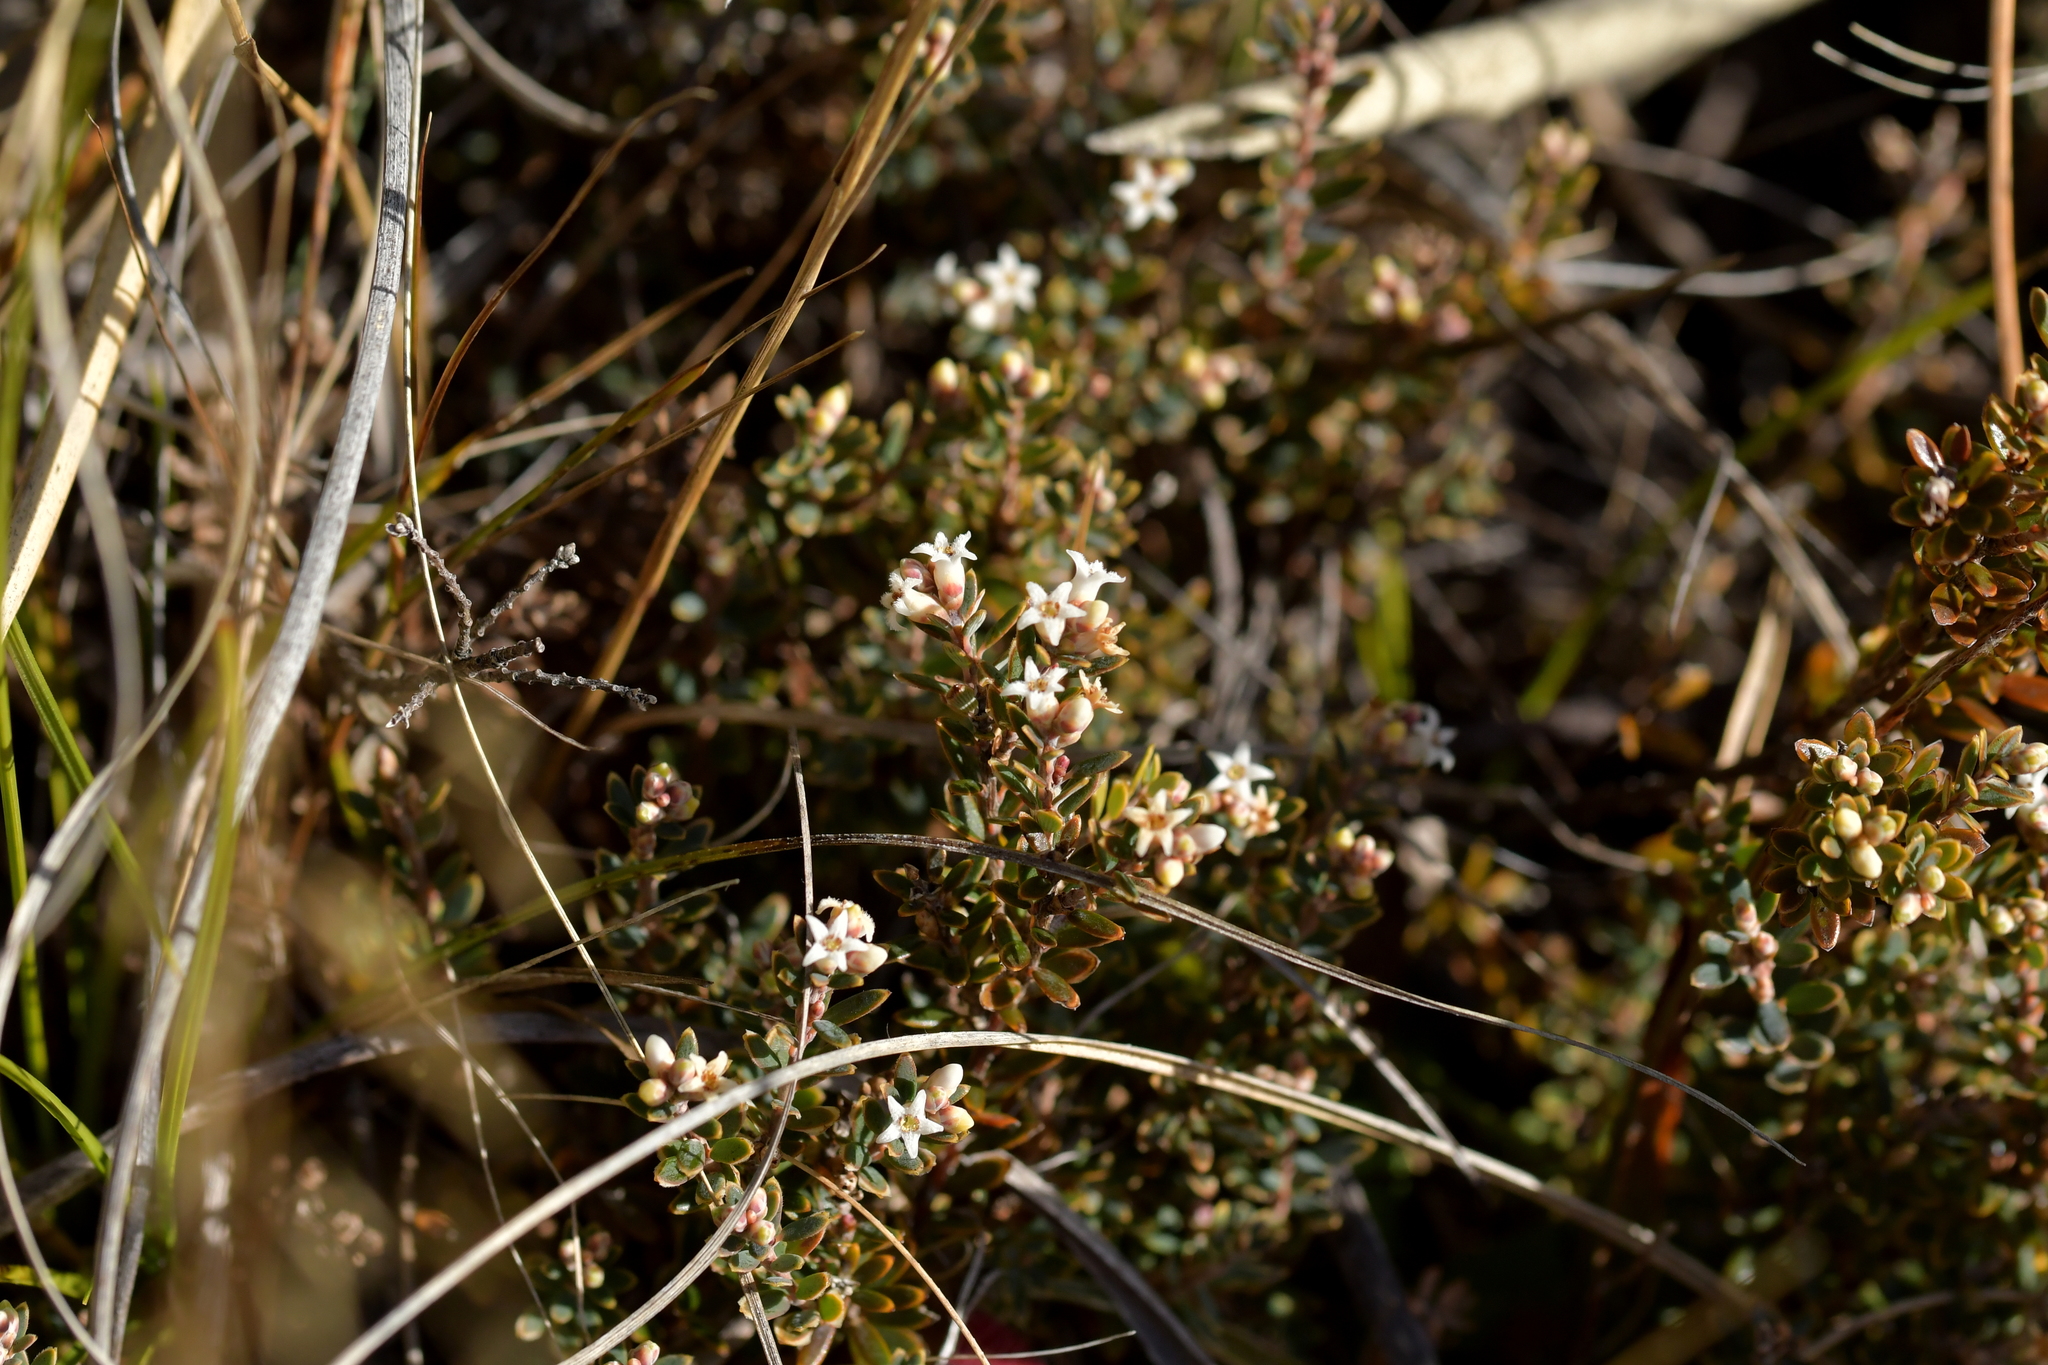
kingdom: Plantae
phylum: Tracheophyta
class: Magnoliopsida
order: Ericales
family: Ericaceae
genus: Acrothamnus
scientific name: Acrothamnus colensoi
